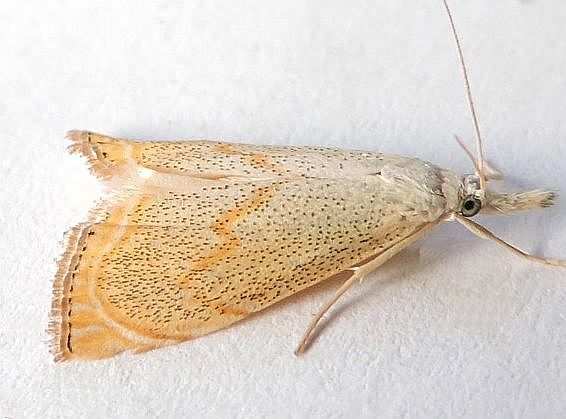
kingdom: Animalia
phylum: Arthropoda
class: Insecta
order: Lepidoptera
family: Crambidae
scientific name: Crambidae
